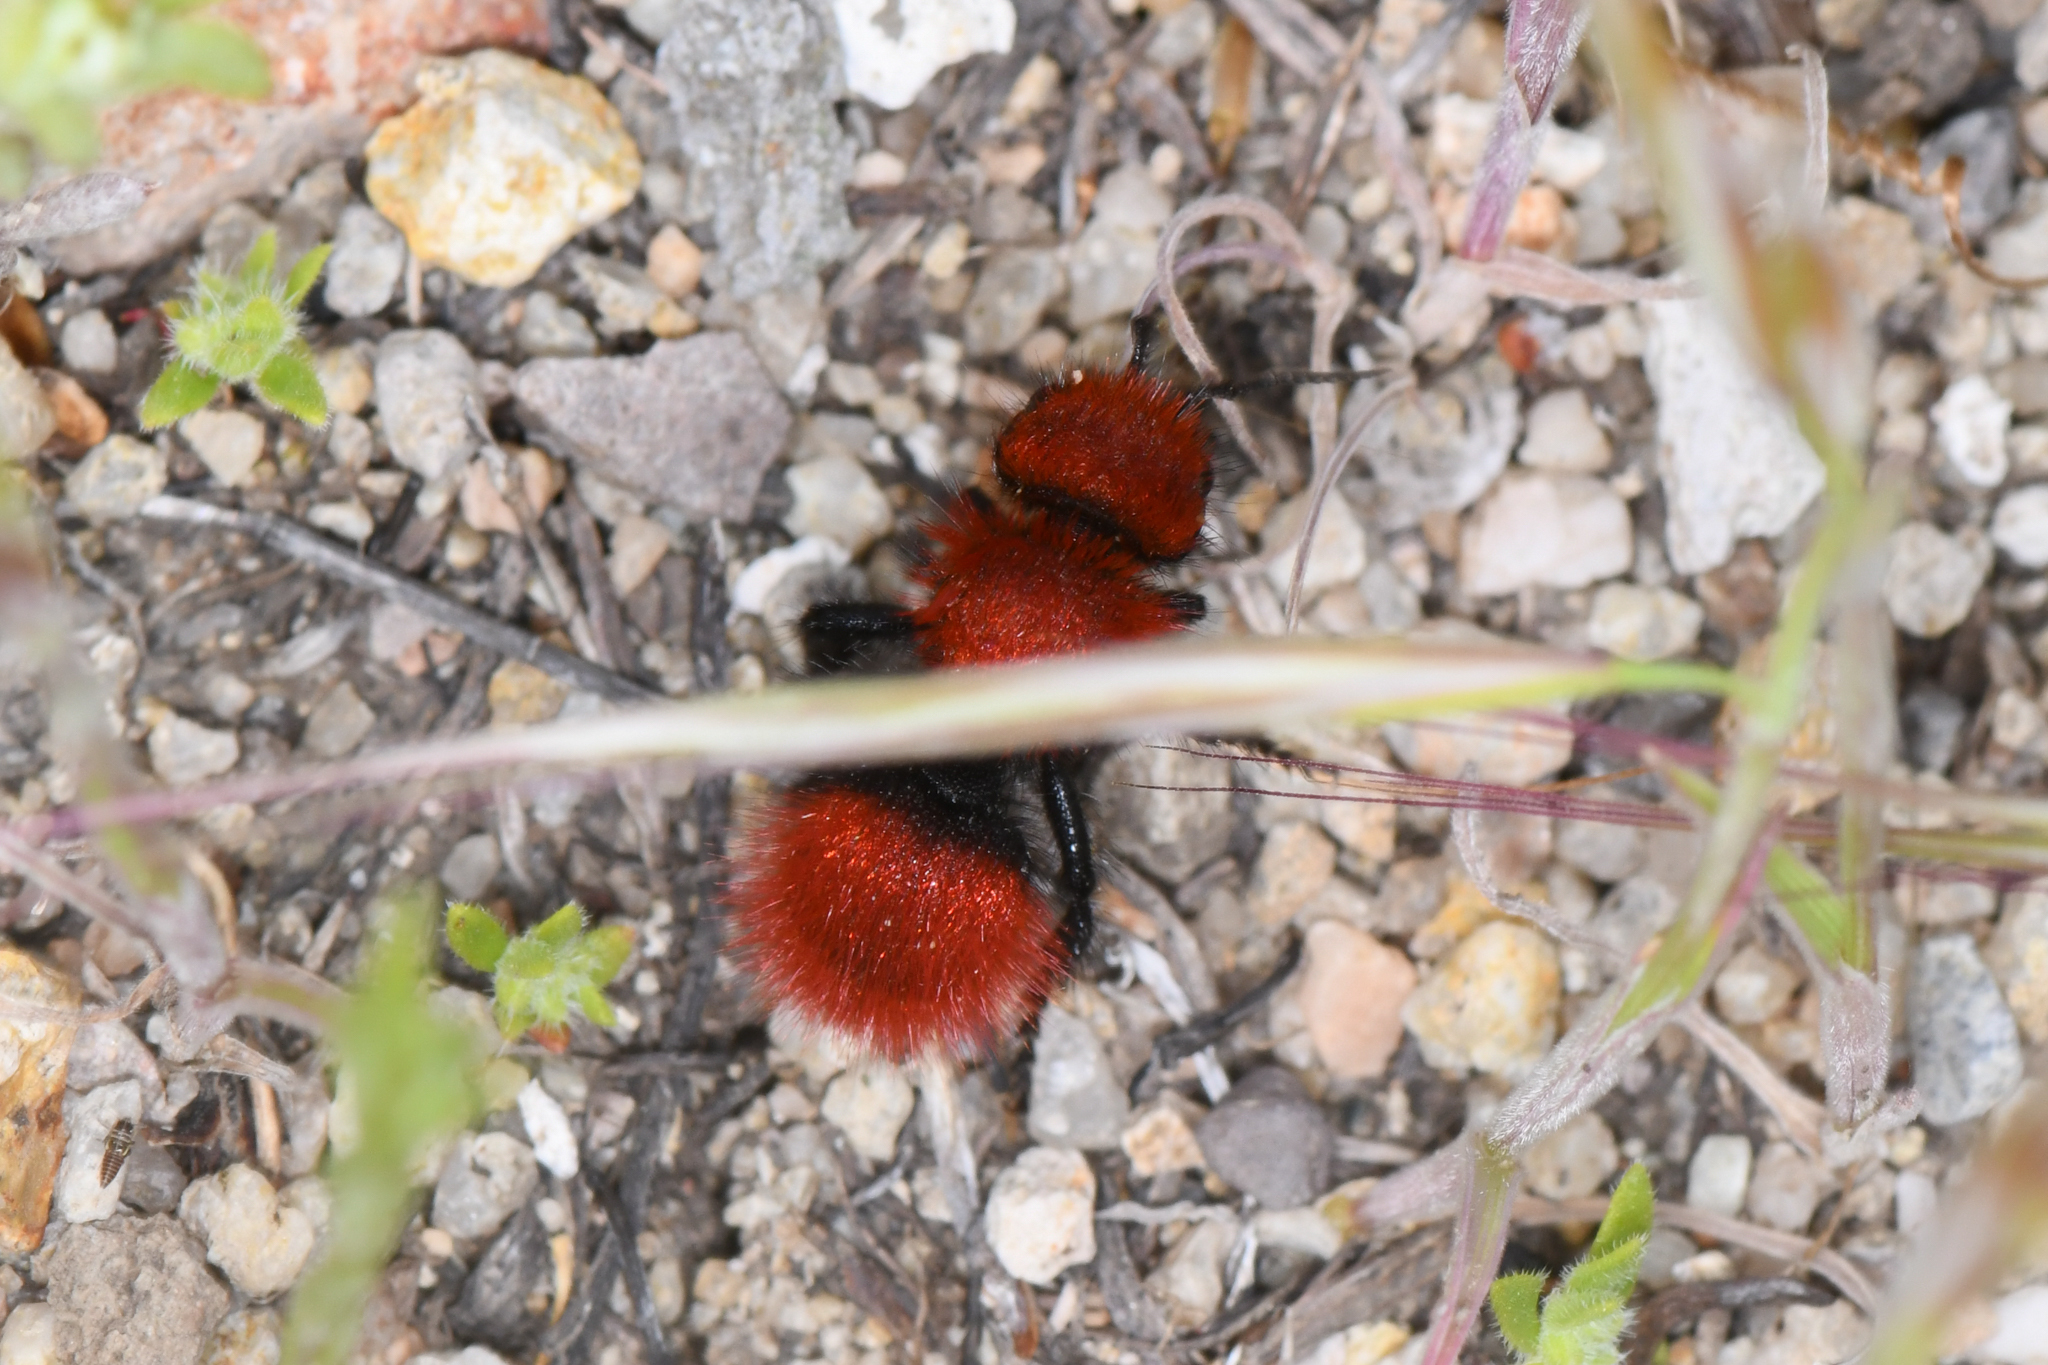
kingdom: Animalia
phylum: Arthropoda
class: Insecta
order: Hymenoptera
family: Mutillidae
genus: Dasymutilla
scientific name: Dasymutilla
